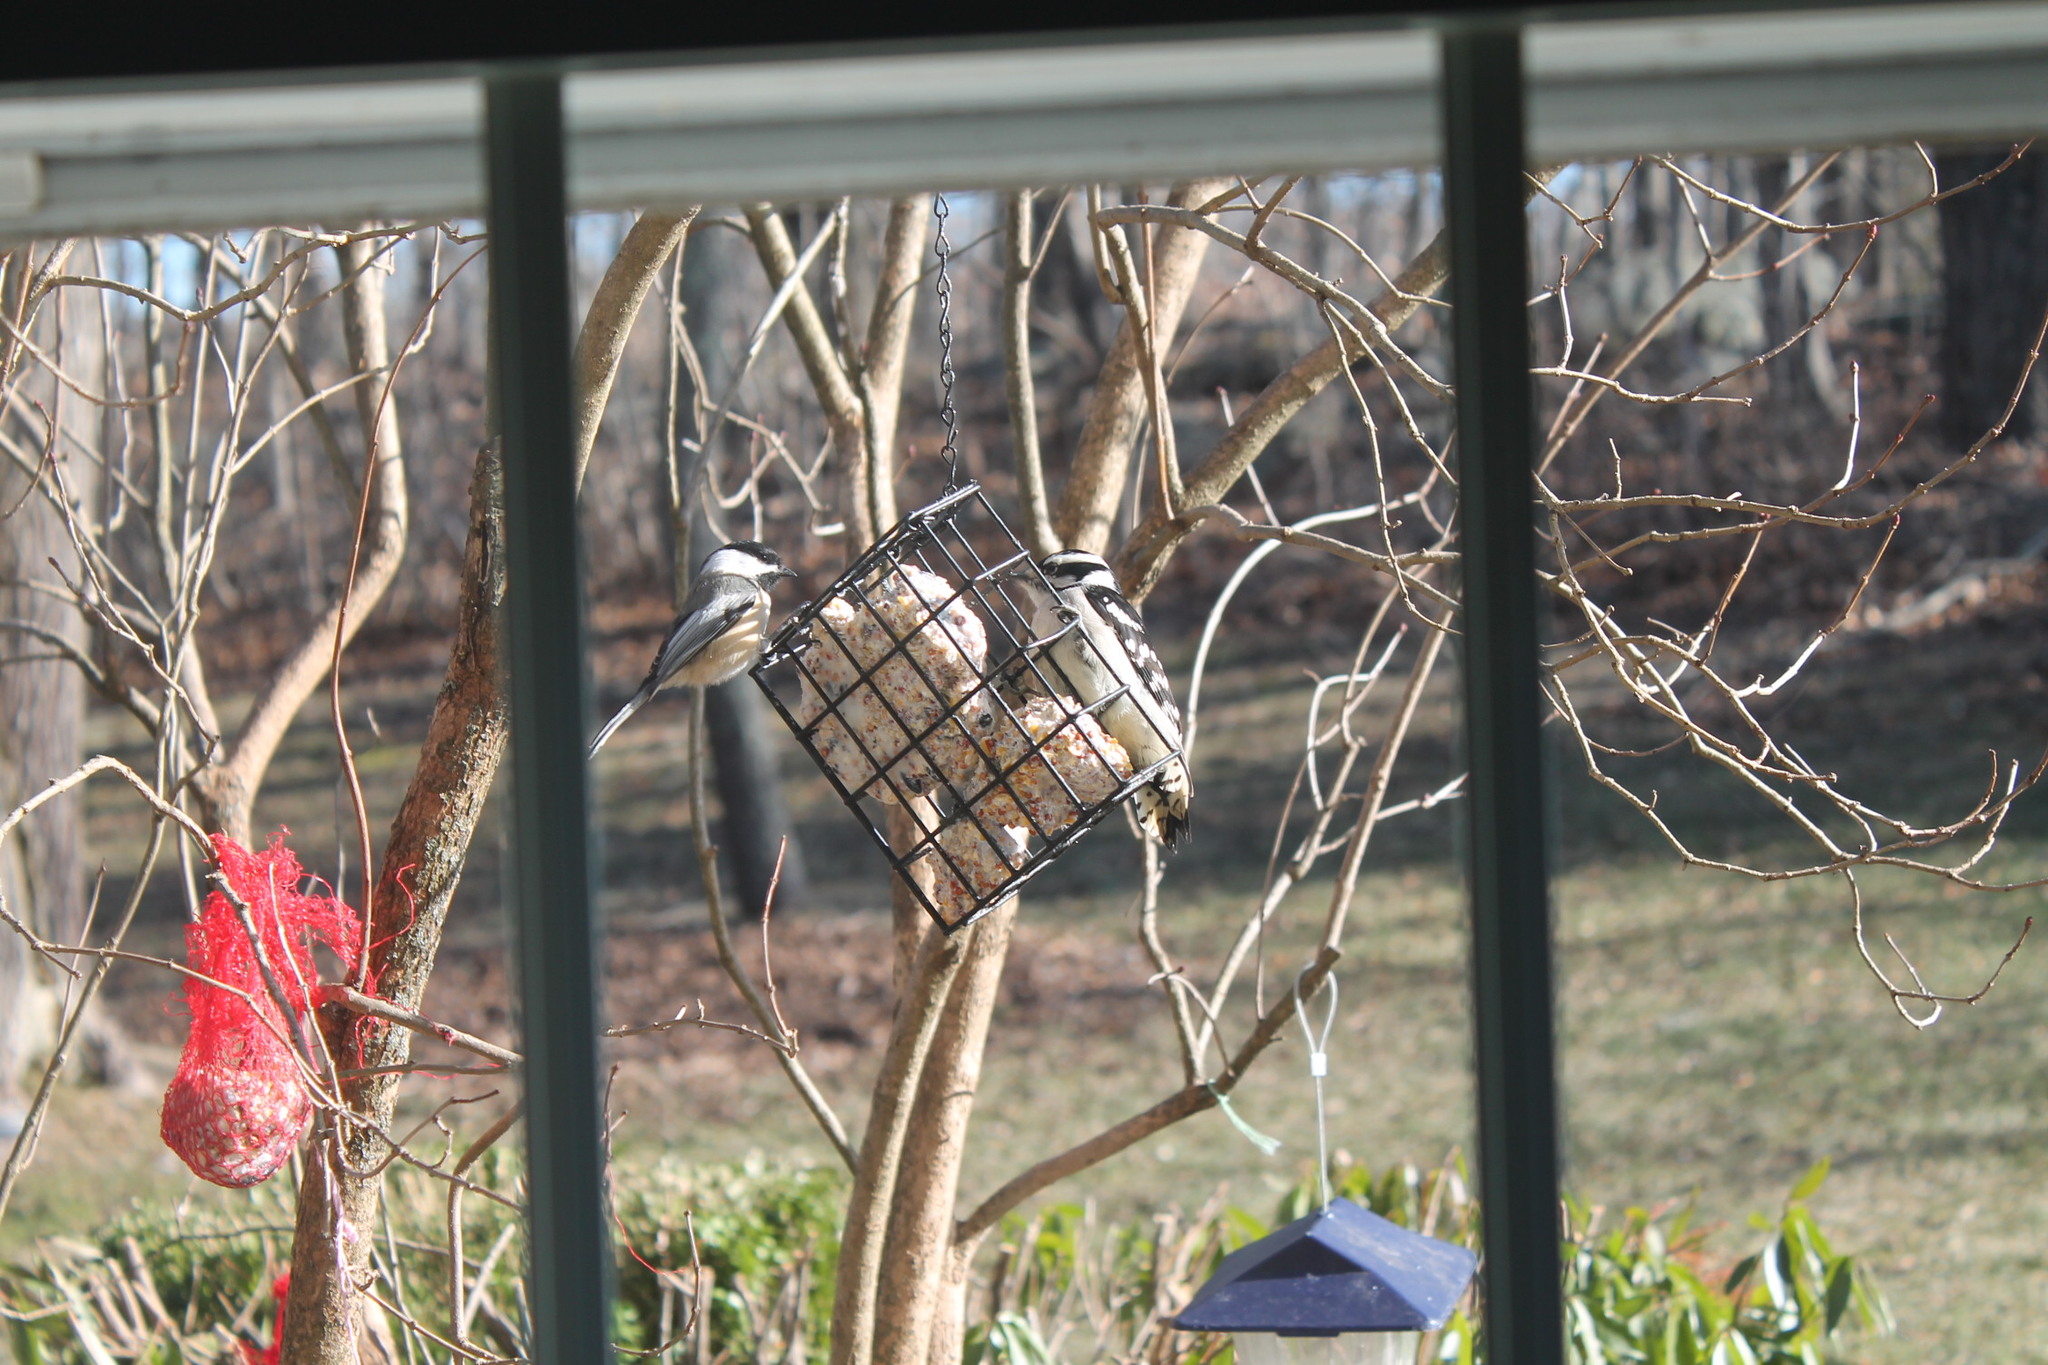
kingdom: Animalia
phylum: Chordata
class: Aves
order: Passeriformes
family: Paridae
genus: Poecile
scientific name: Poecile atricapillus
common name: Black-capped chickadee
